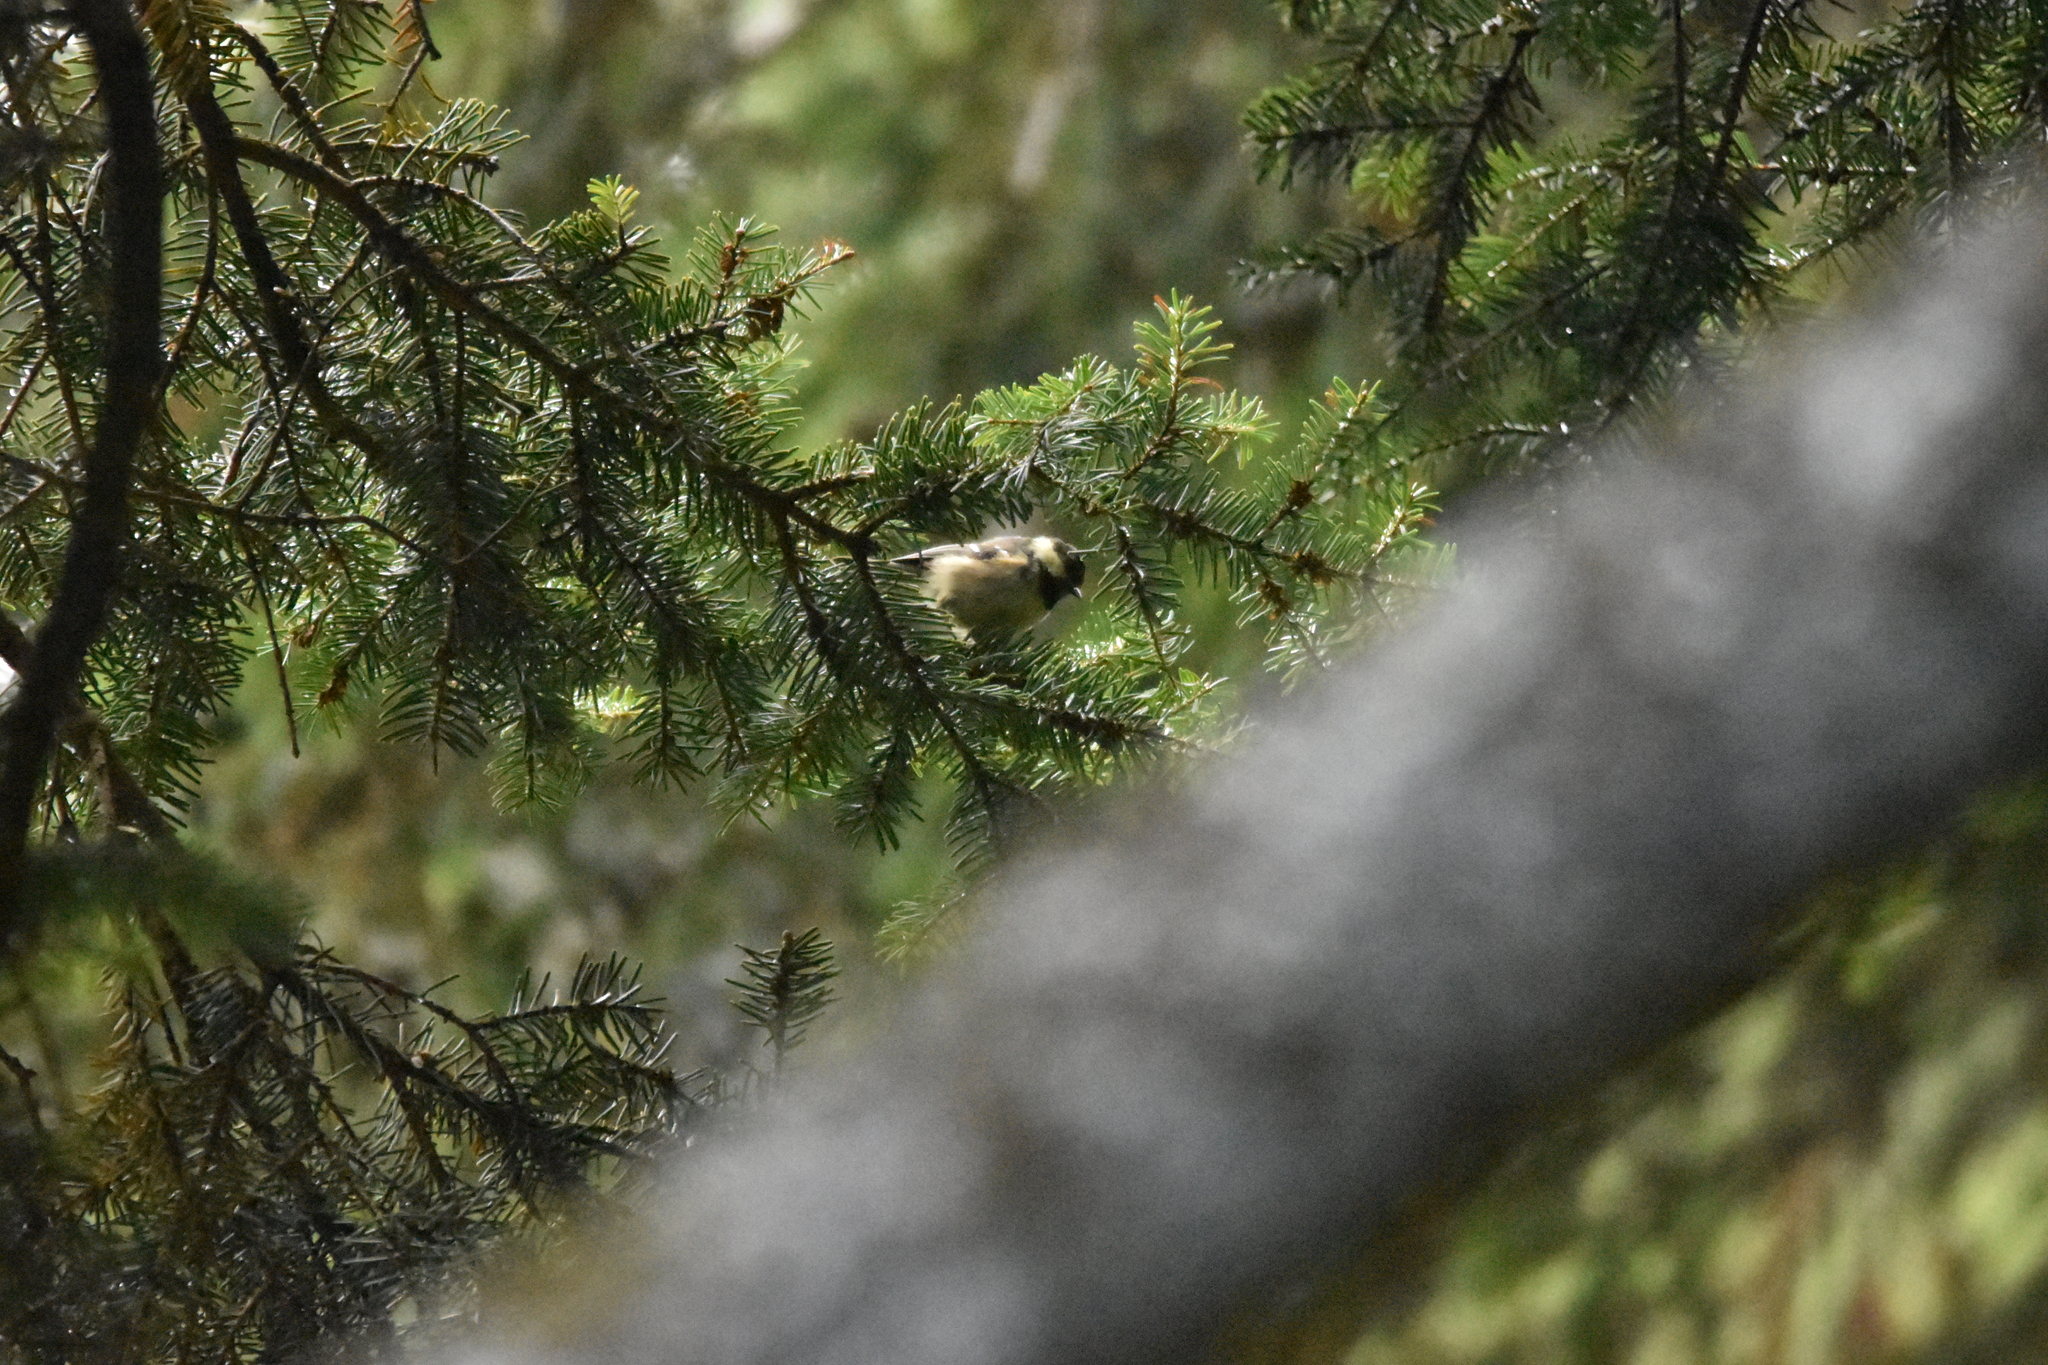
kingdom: Animalia
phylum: Chordata
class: Aves
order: Passeriformes
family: Paridae
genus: Periparus
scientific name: Periparus ater
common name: Coal tit
